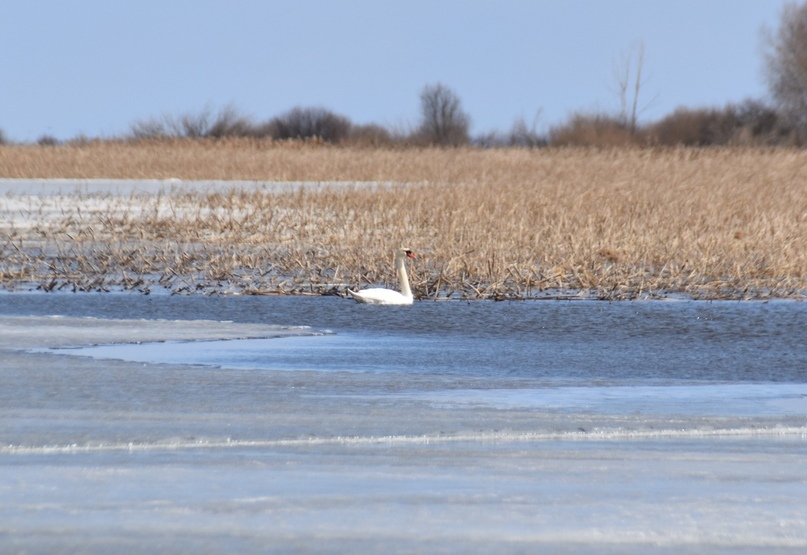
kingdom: Animalia
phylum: Chordata
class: Aves
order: Anseriformes
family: Anatidae
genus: Cygnus
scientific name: Cygnus olor
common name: Mute swan
